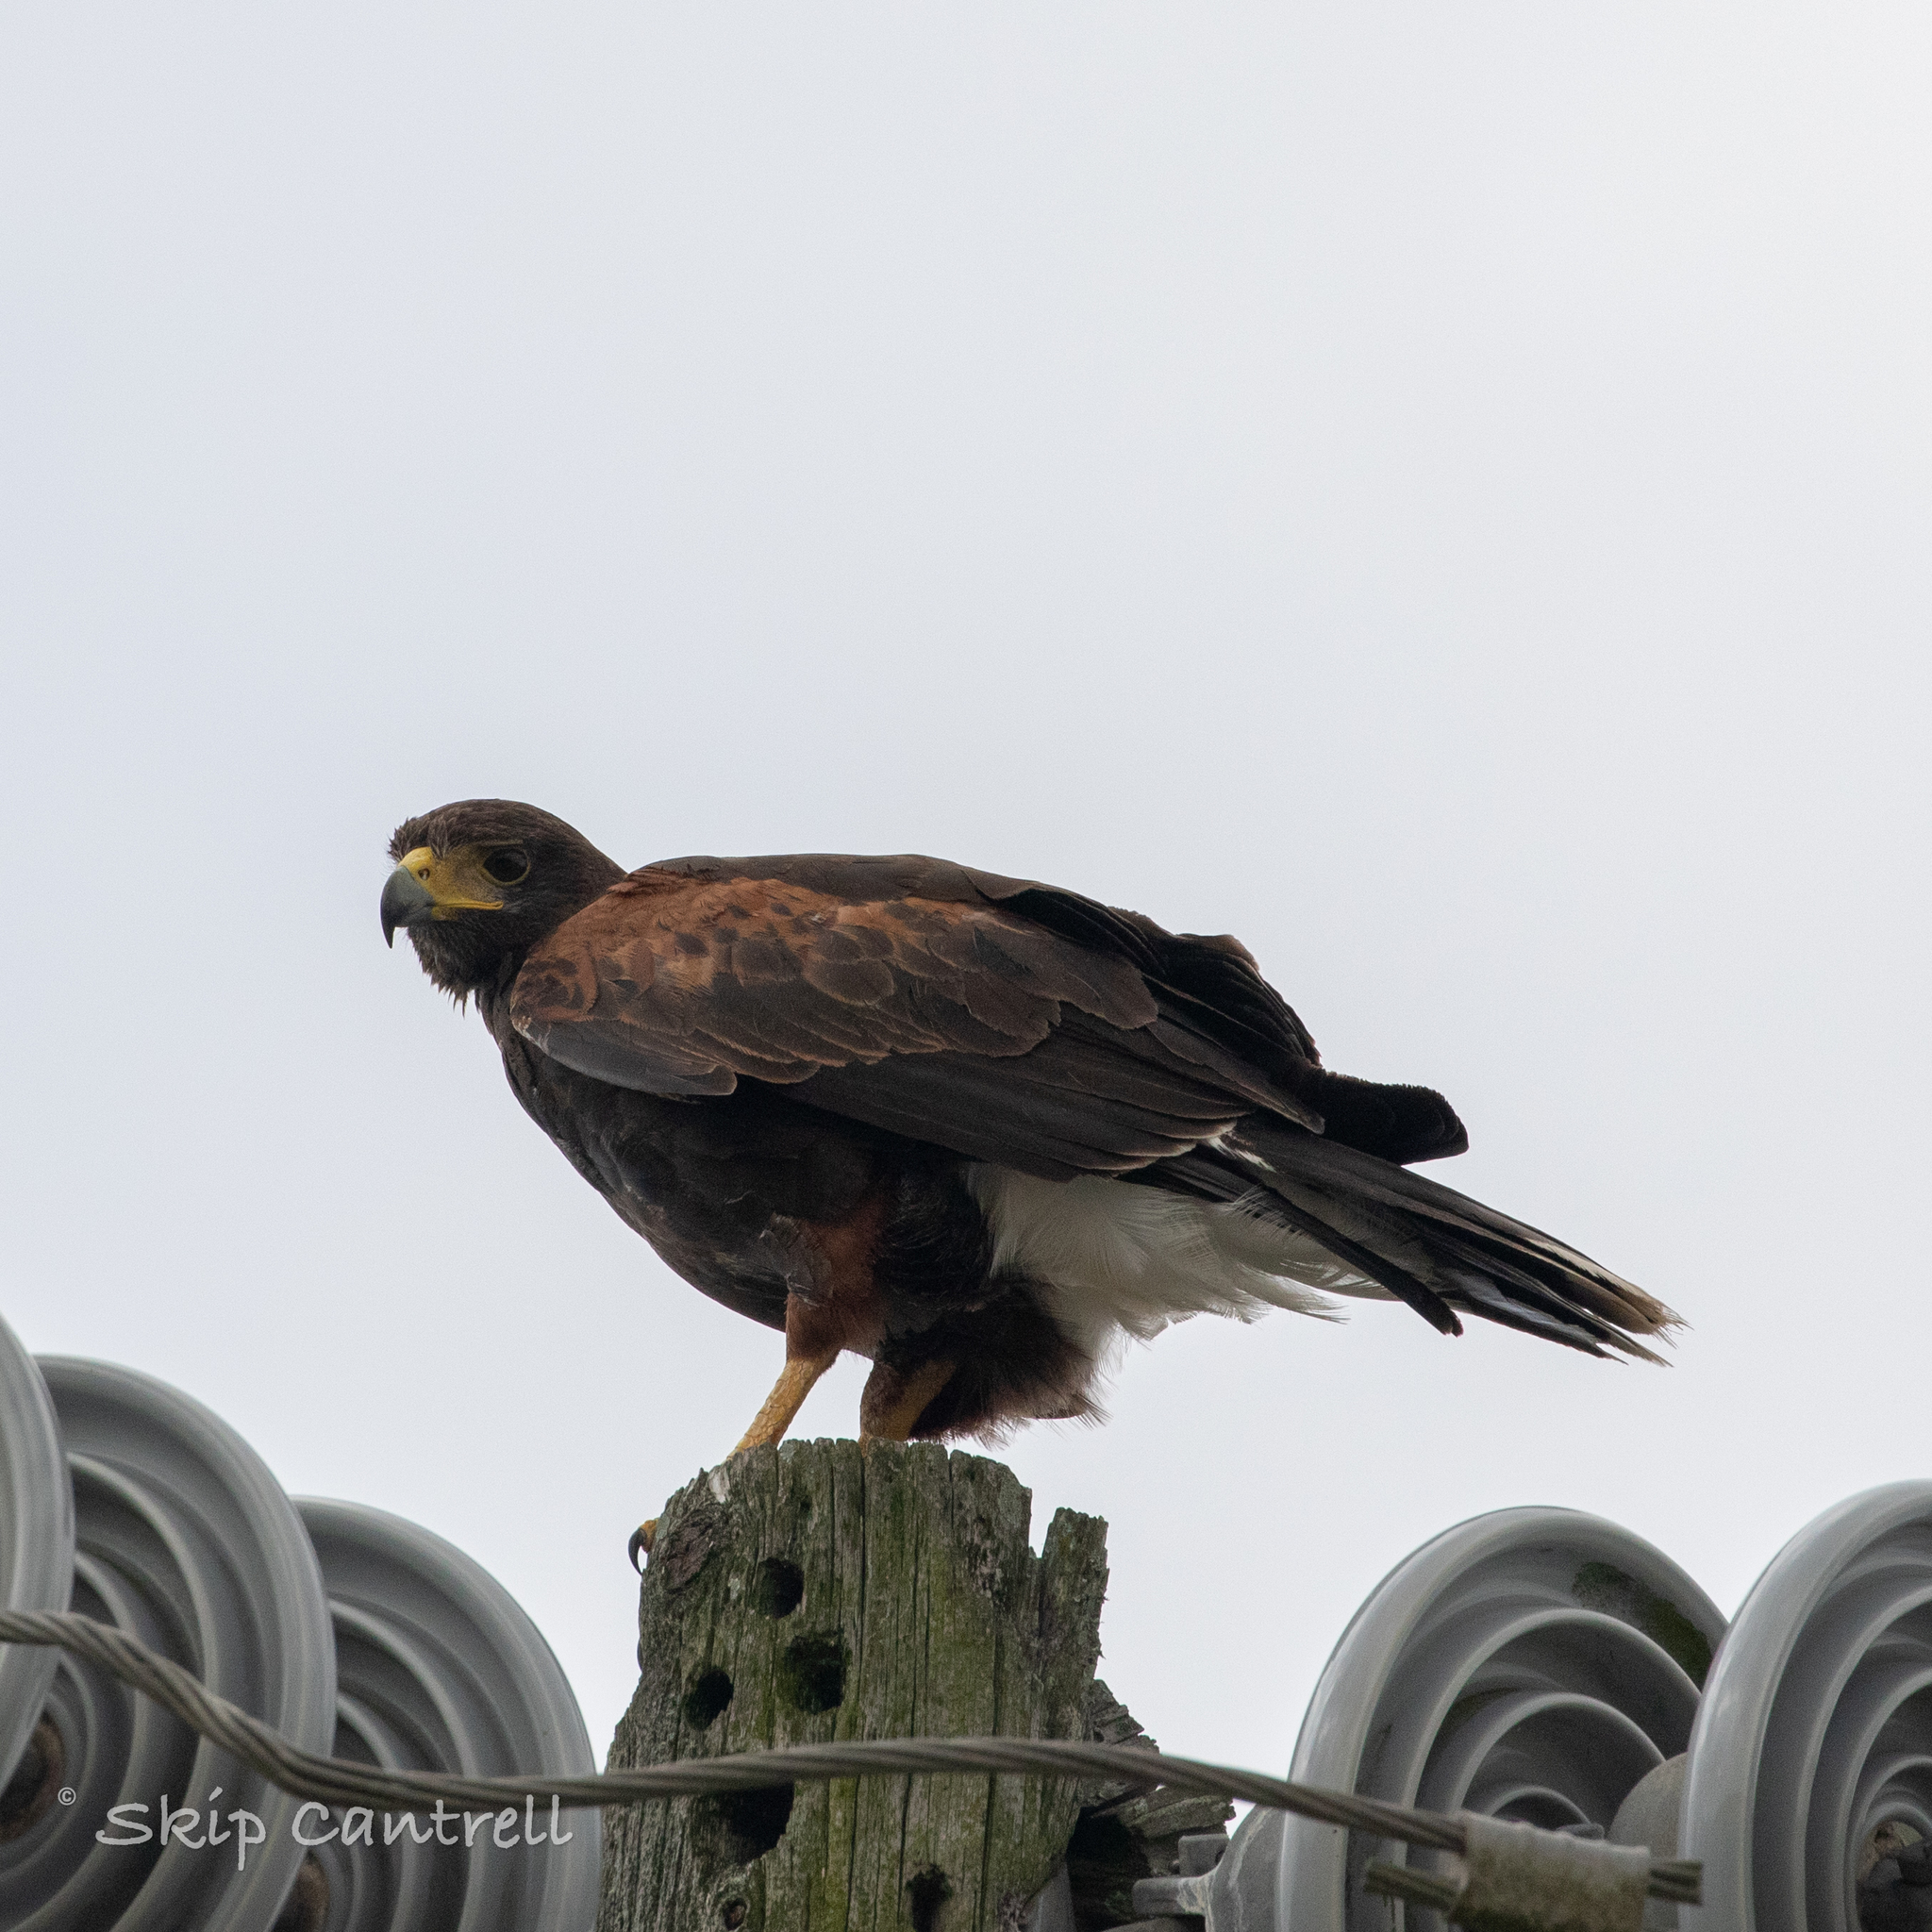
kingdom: Animalia
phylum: Chordata
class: Aves
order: Accipitriformes
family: Accipitridae
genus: Parabuteo
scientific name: Parabuteo unicinctus
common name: Harris's hawk
